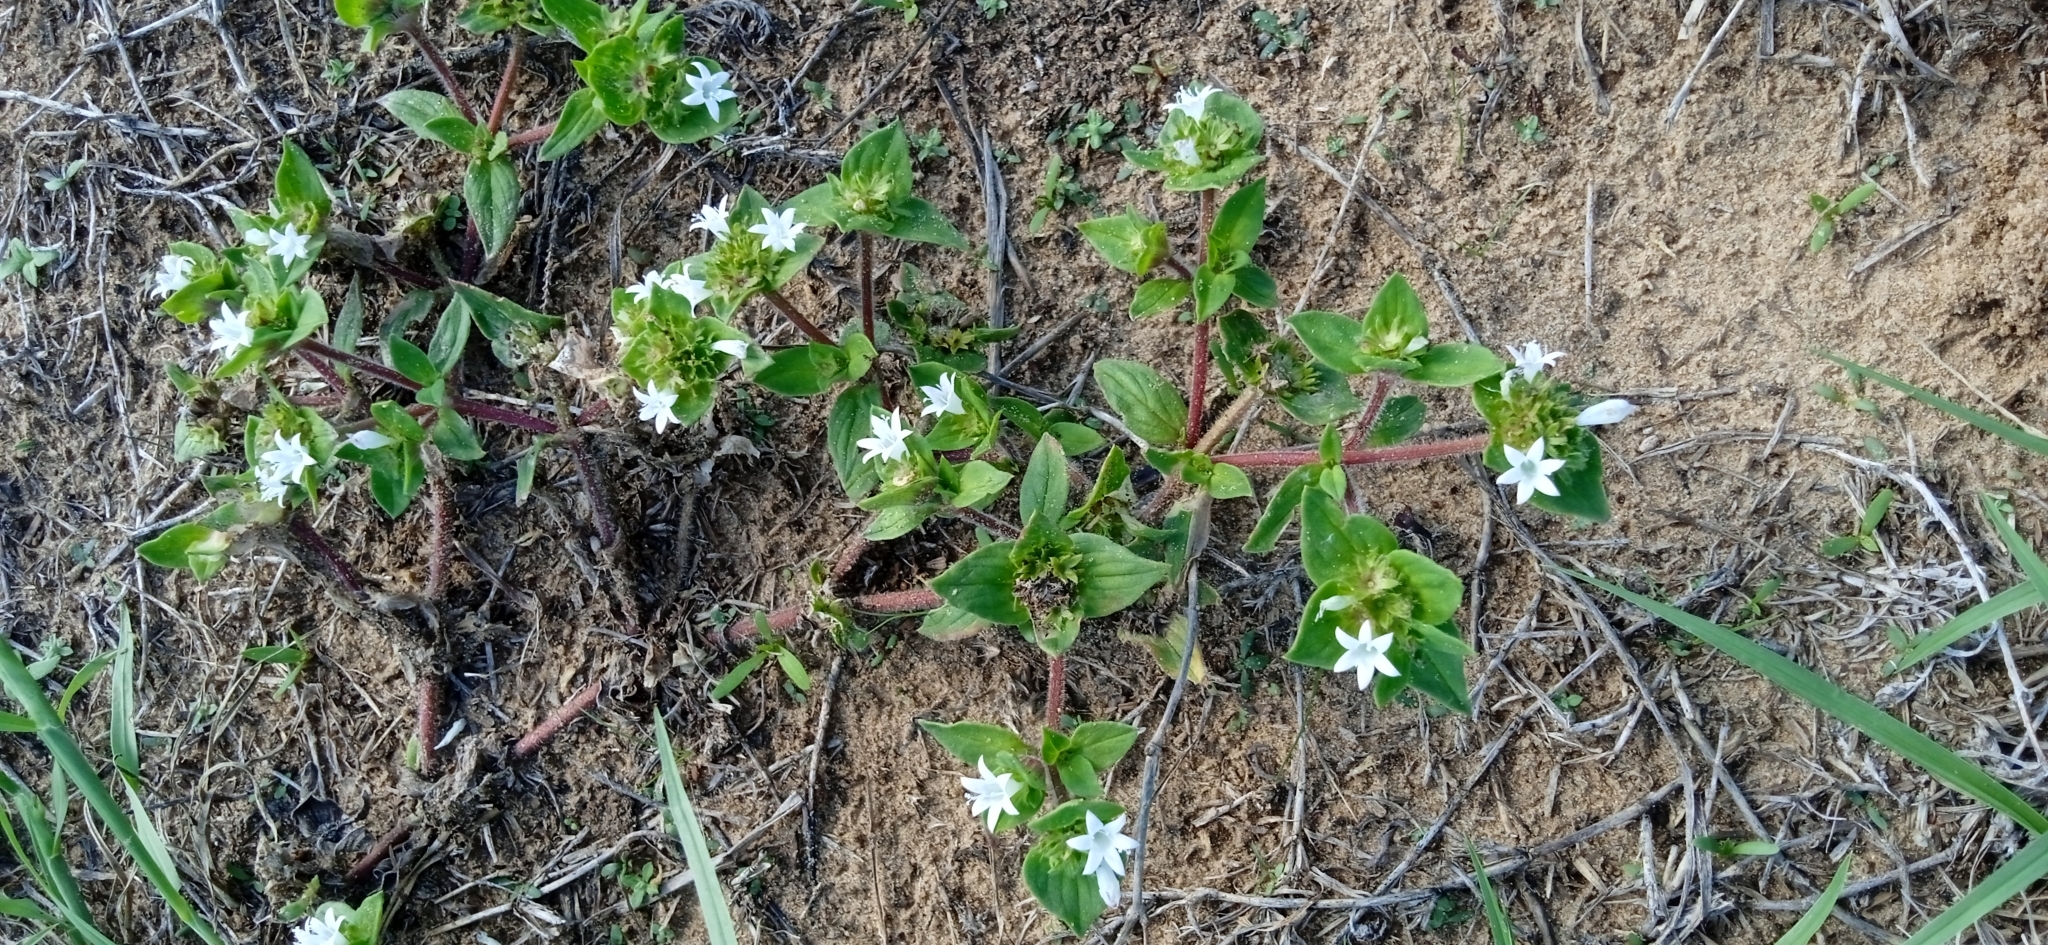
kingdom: Plantae
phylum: Tracheophyta
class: Magnoliopsida
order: Gentianales
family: Rubiaceae
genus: Richardia
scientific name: Richardia brasiliensis
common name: Tropical mexican clover
